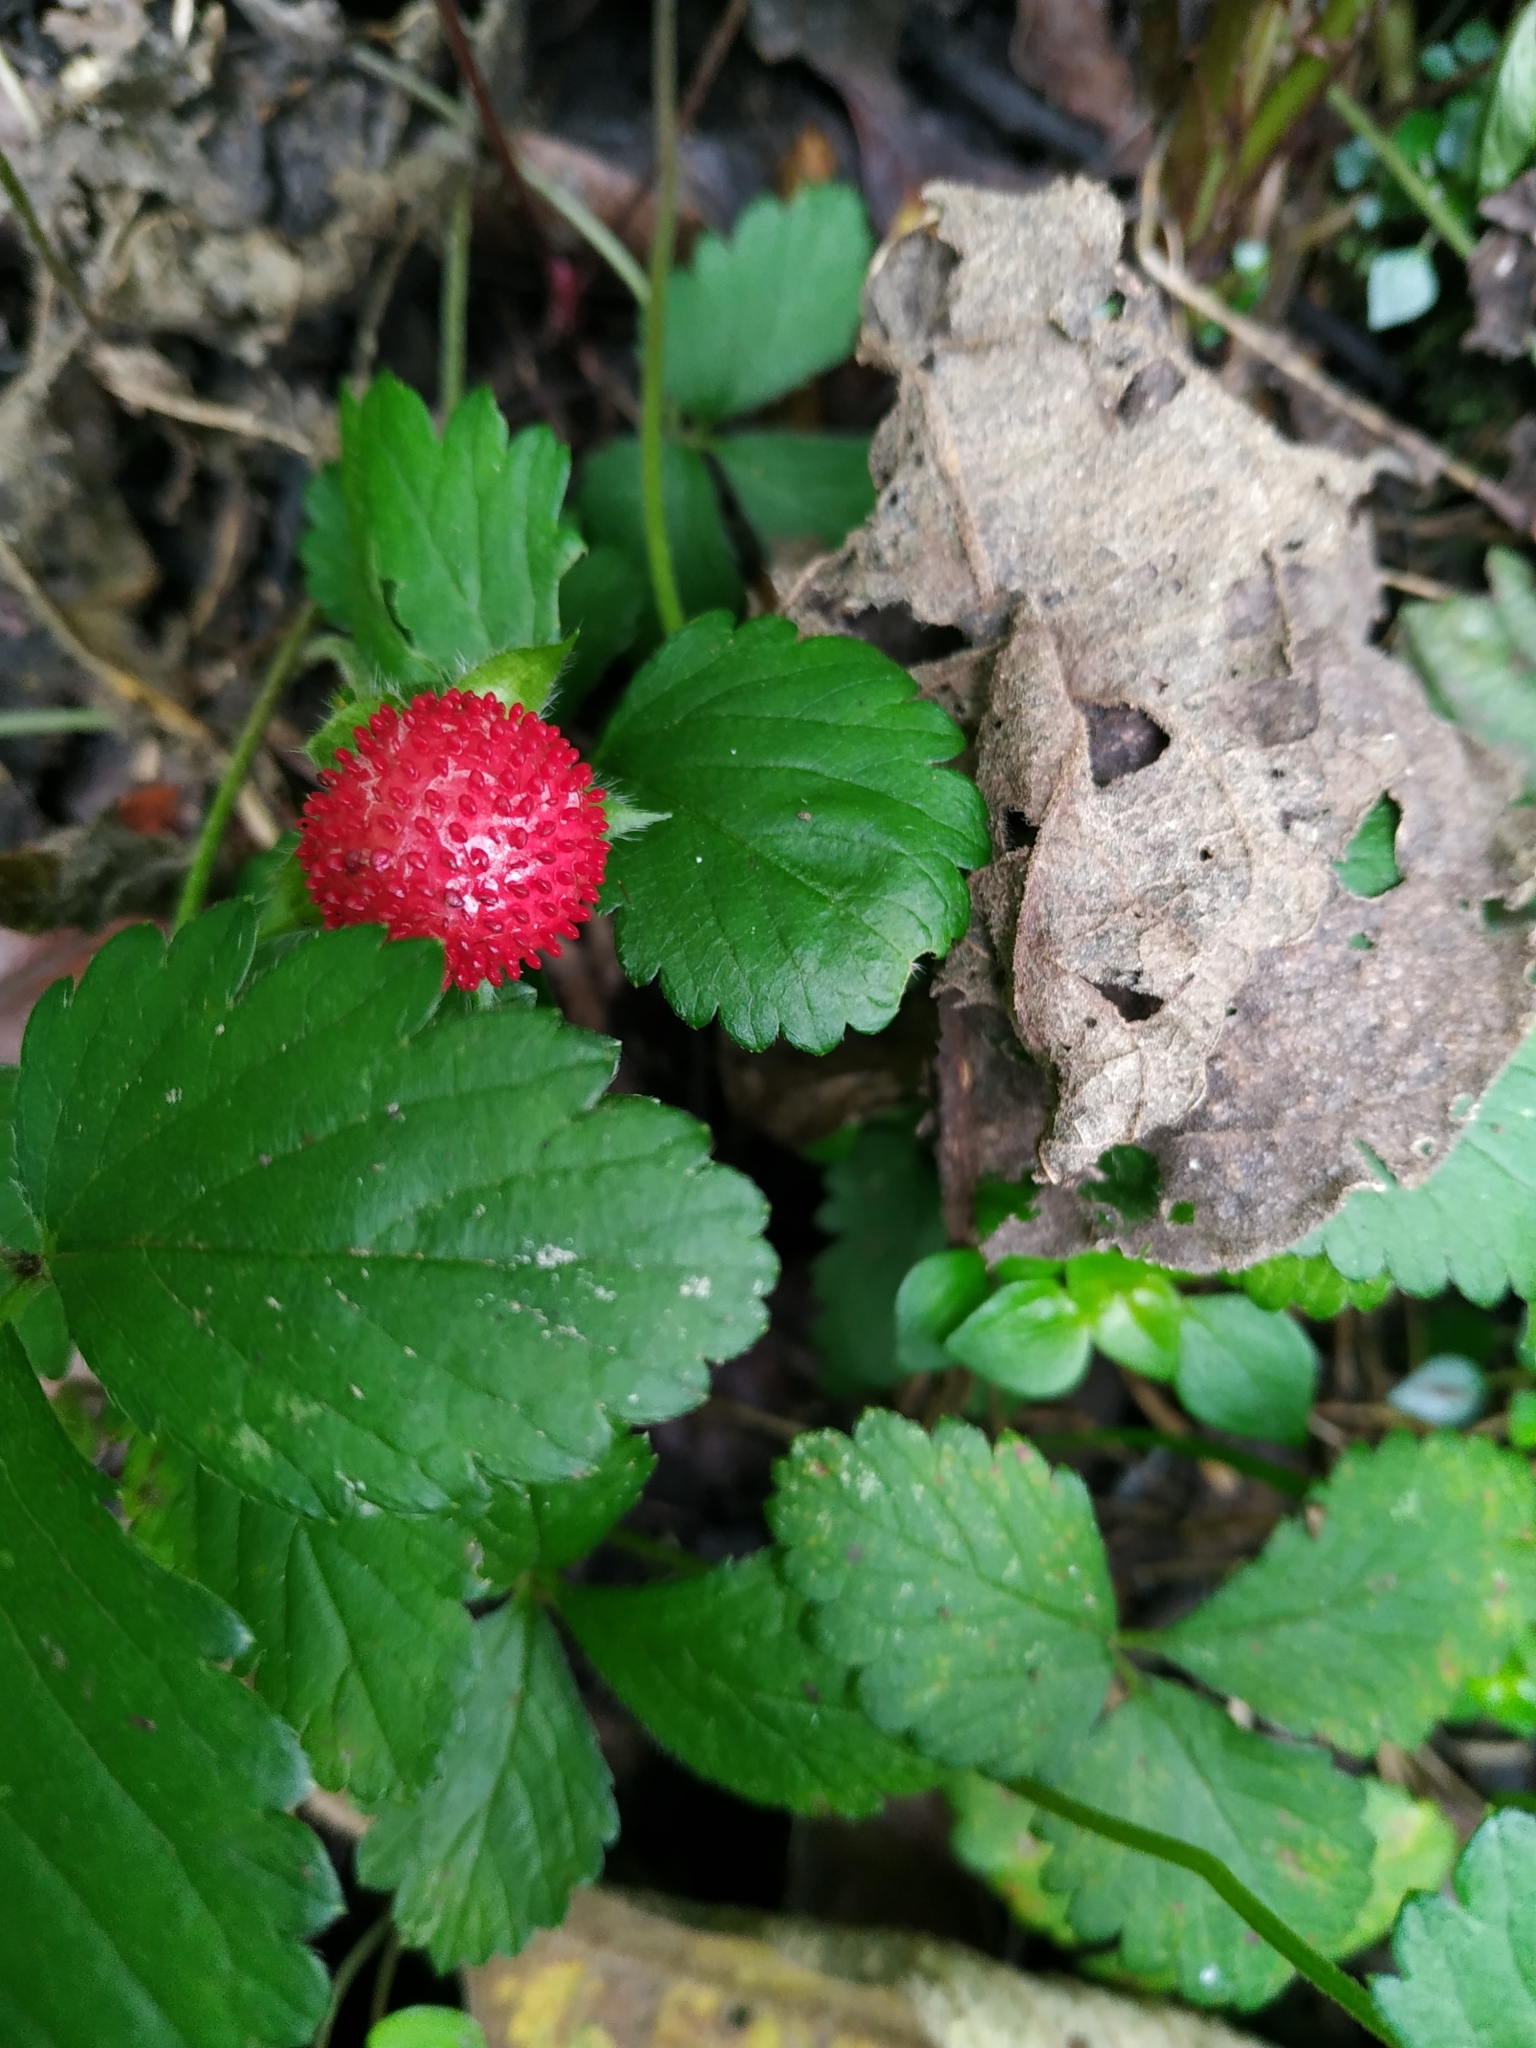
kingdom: Plantae
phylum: Tracheophyta
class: Magnoliopsida
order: Rosales
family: Rosaceae
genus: Potentilla
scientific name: Potentilla indica
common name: Yellow-flowered strawberry
